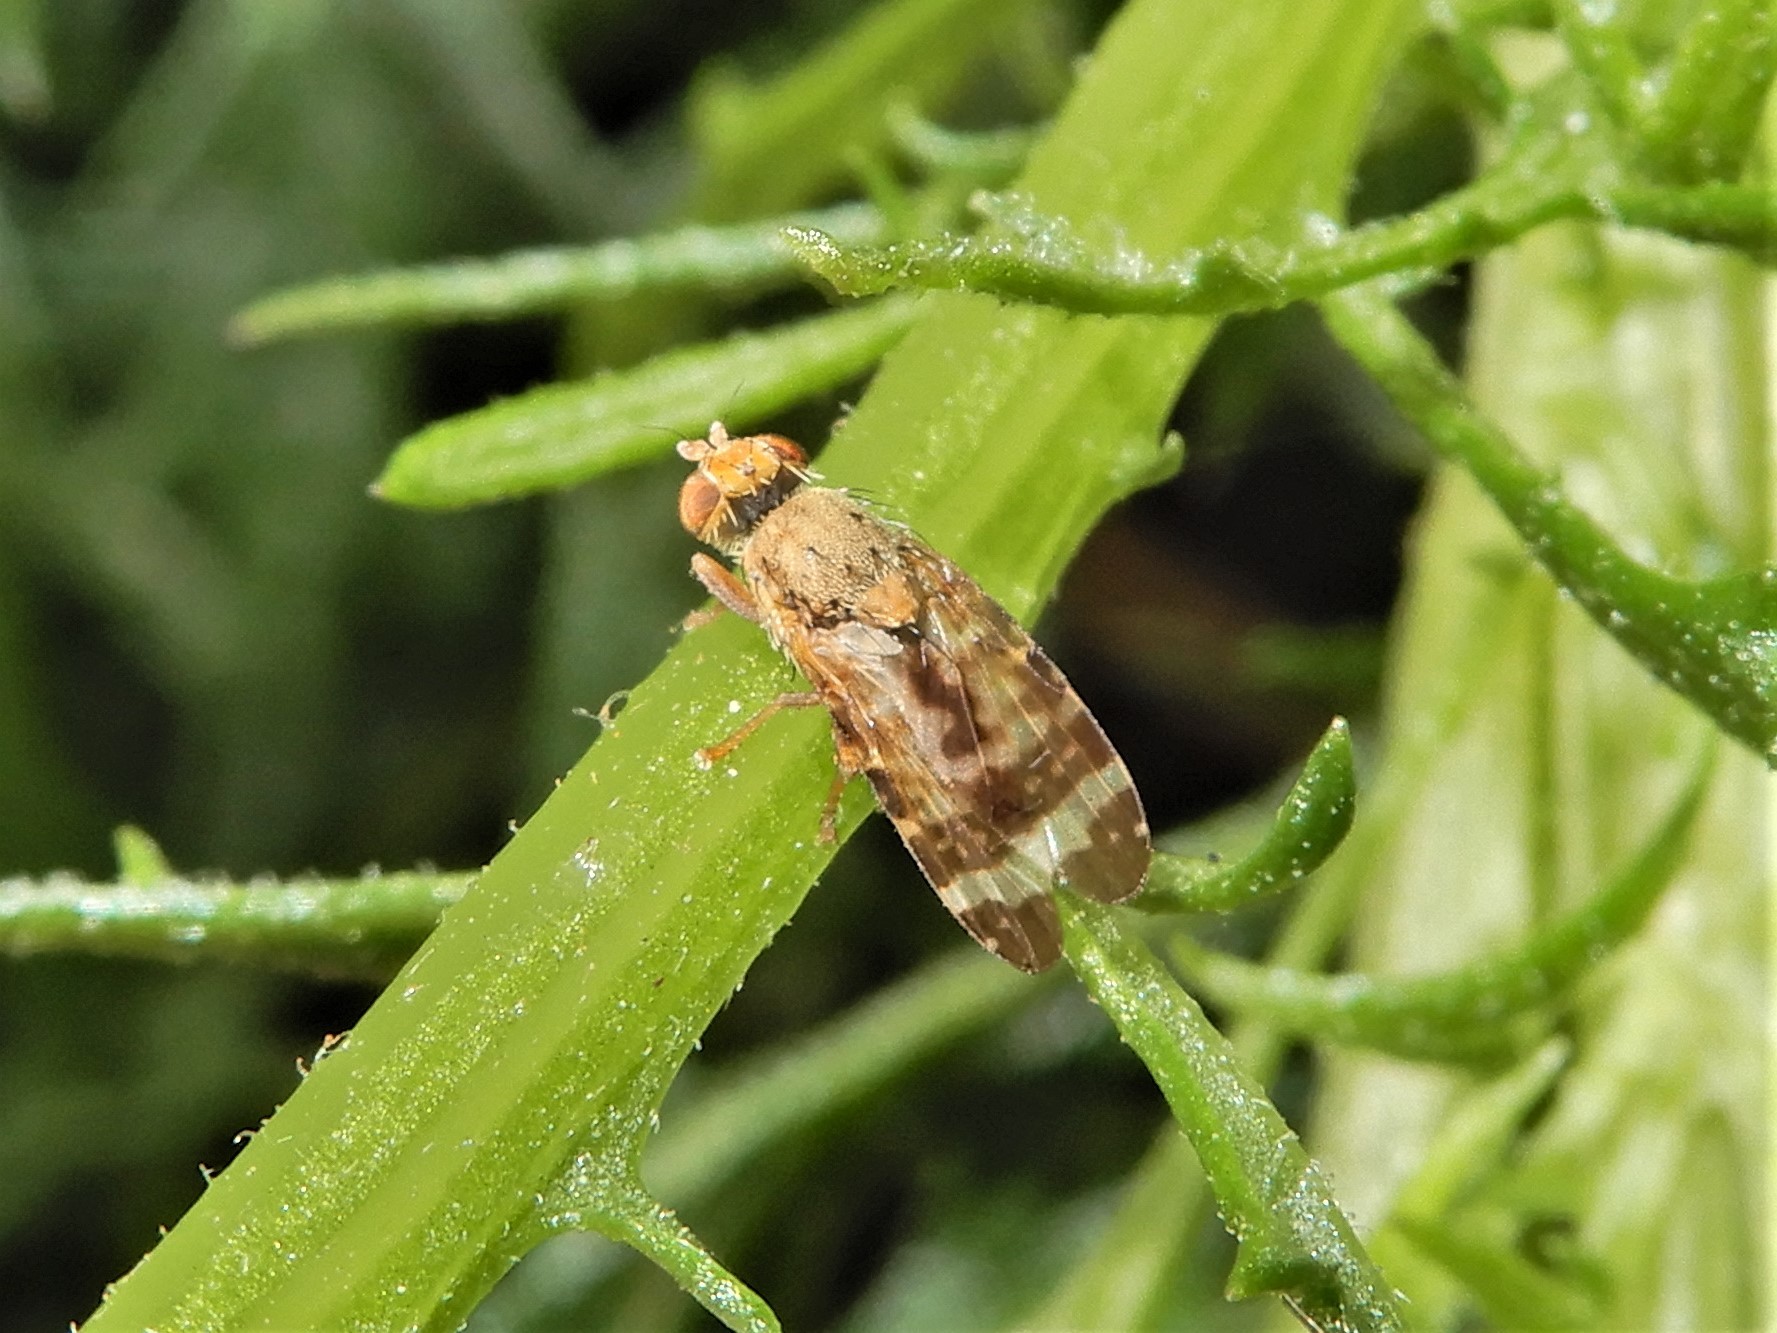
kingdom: Animalia
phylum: Arthropoda
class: Insecta
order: Diptera
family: Tephritidae
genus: Sphenella
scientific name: Sphenella
